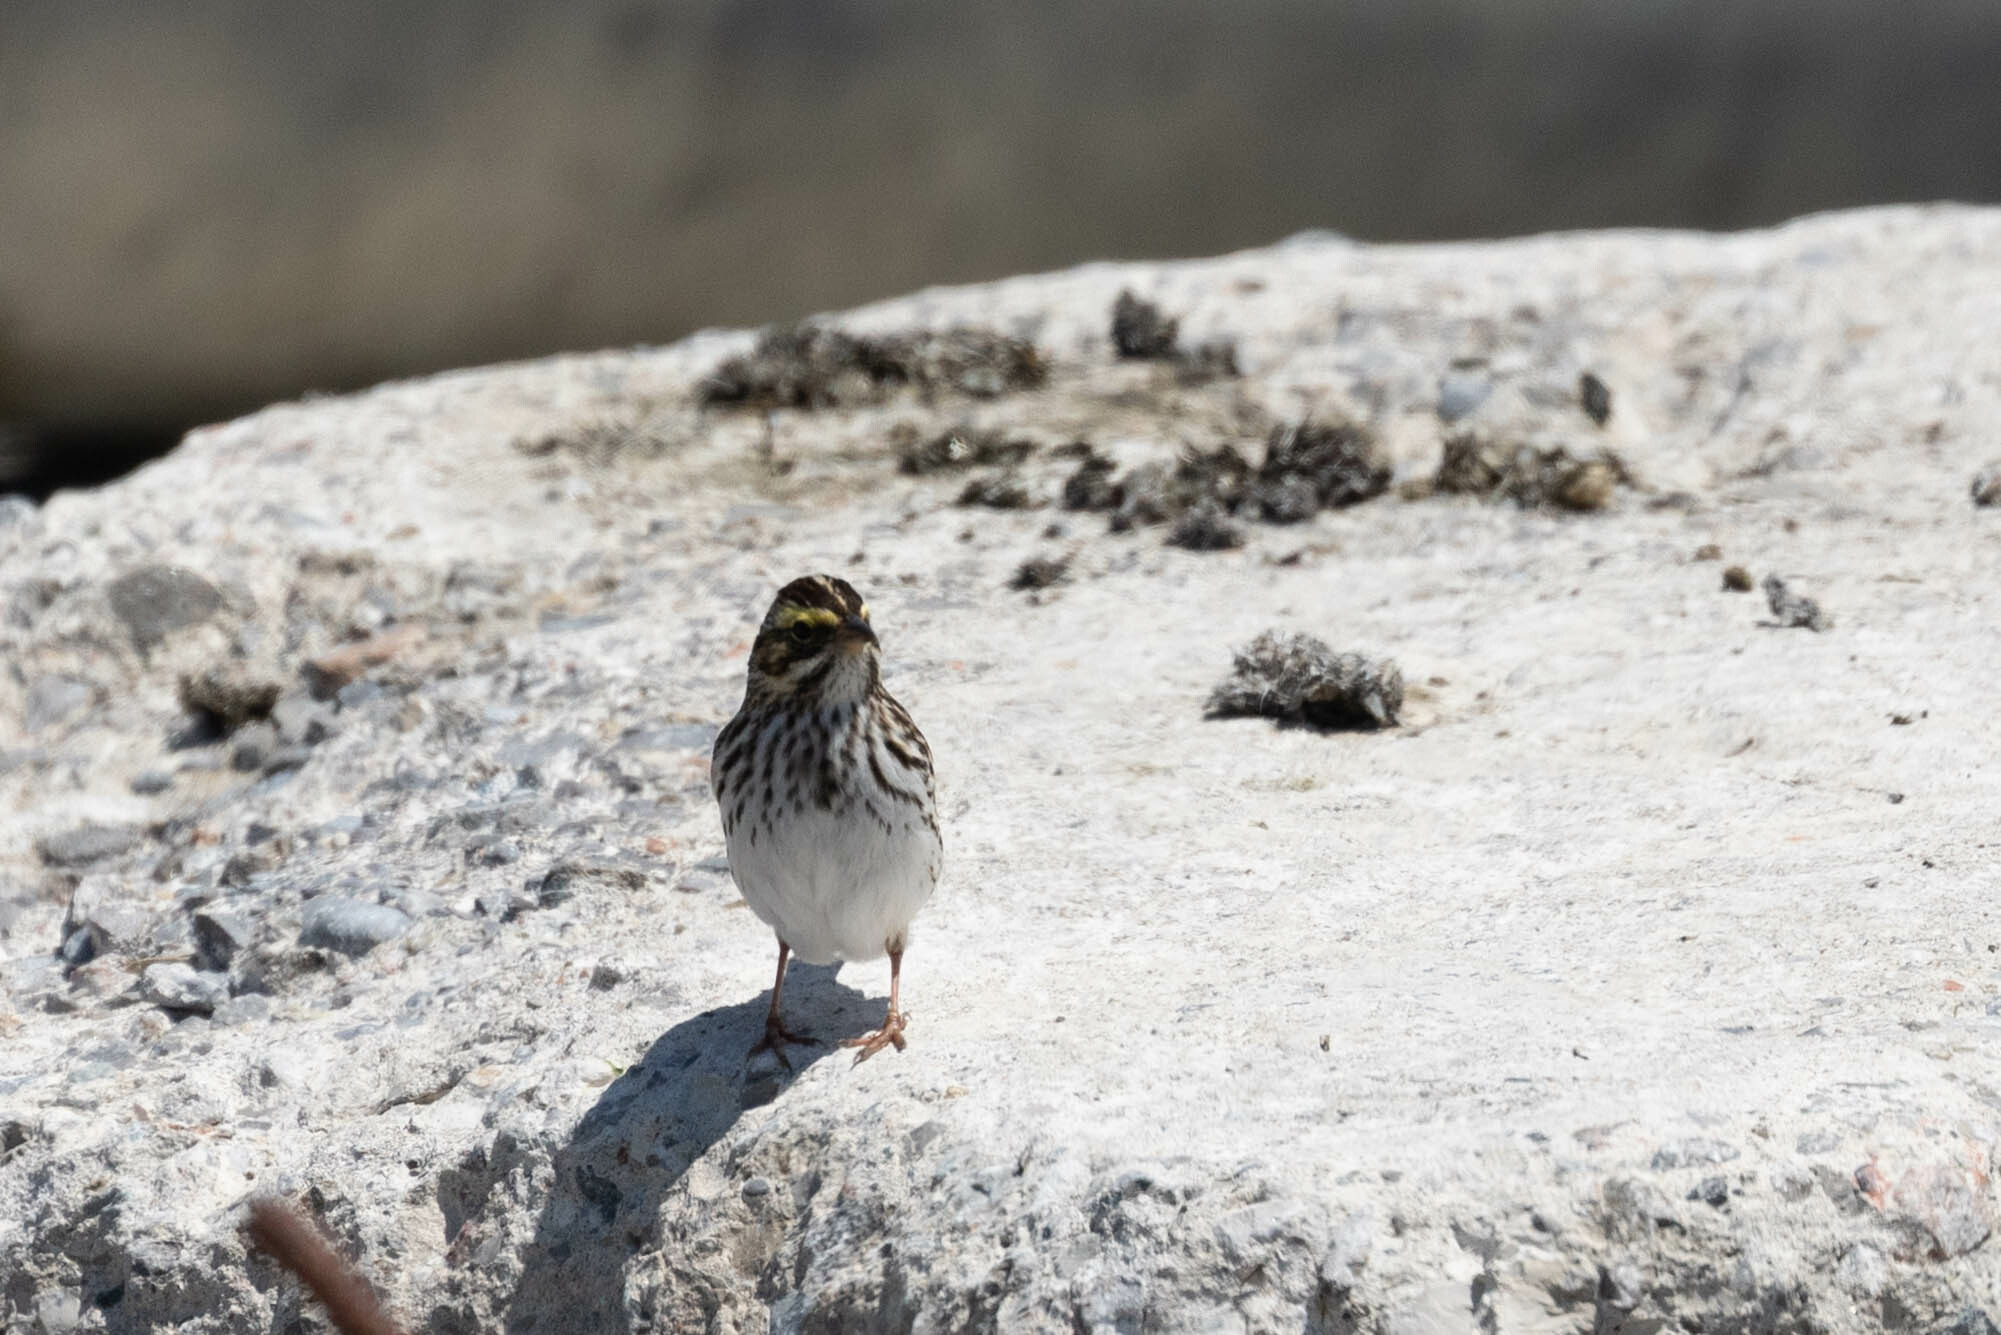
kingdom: Animalia
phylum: Chordata
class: Aves
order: Passeriformes
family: Passerellidae
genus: Passerculus
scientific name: Passerculus sandwichensis
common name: Savannah sparrow
